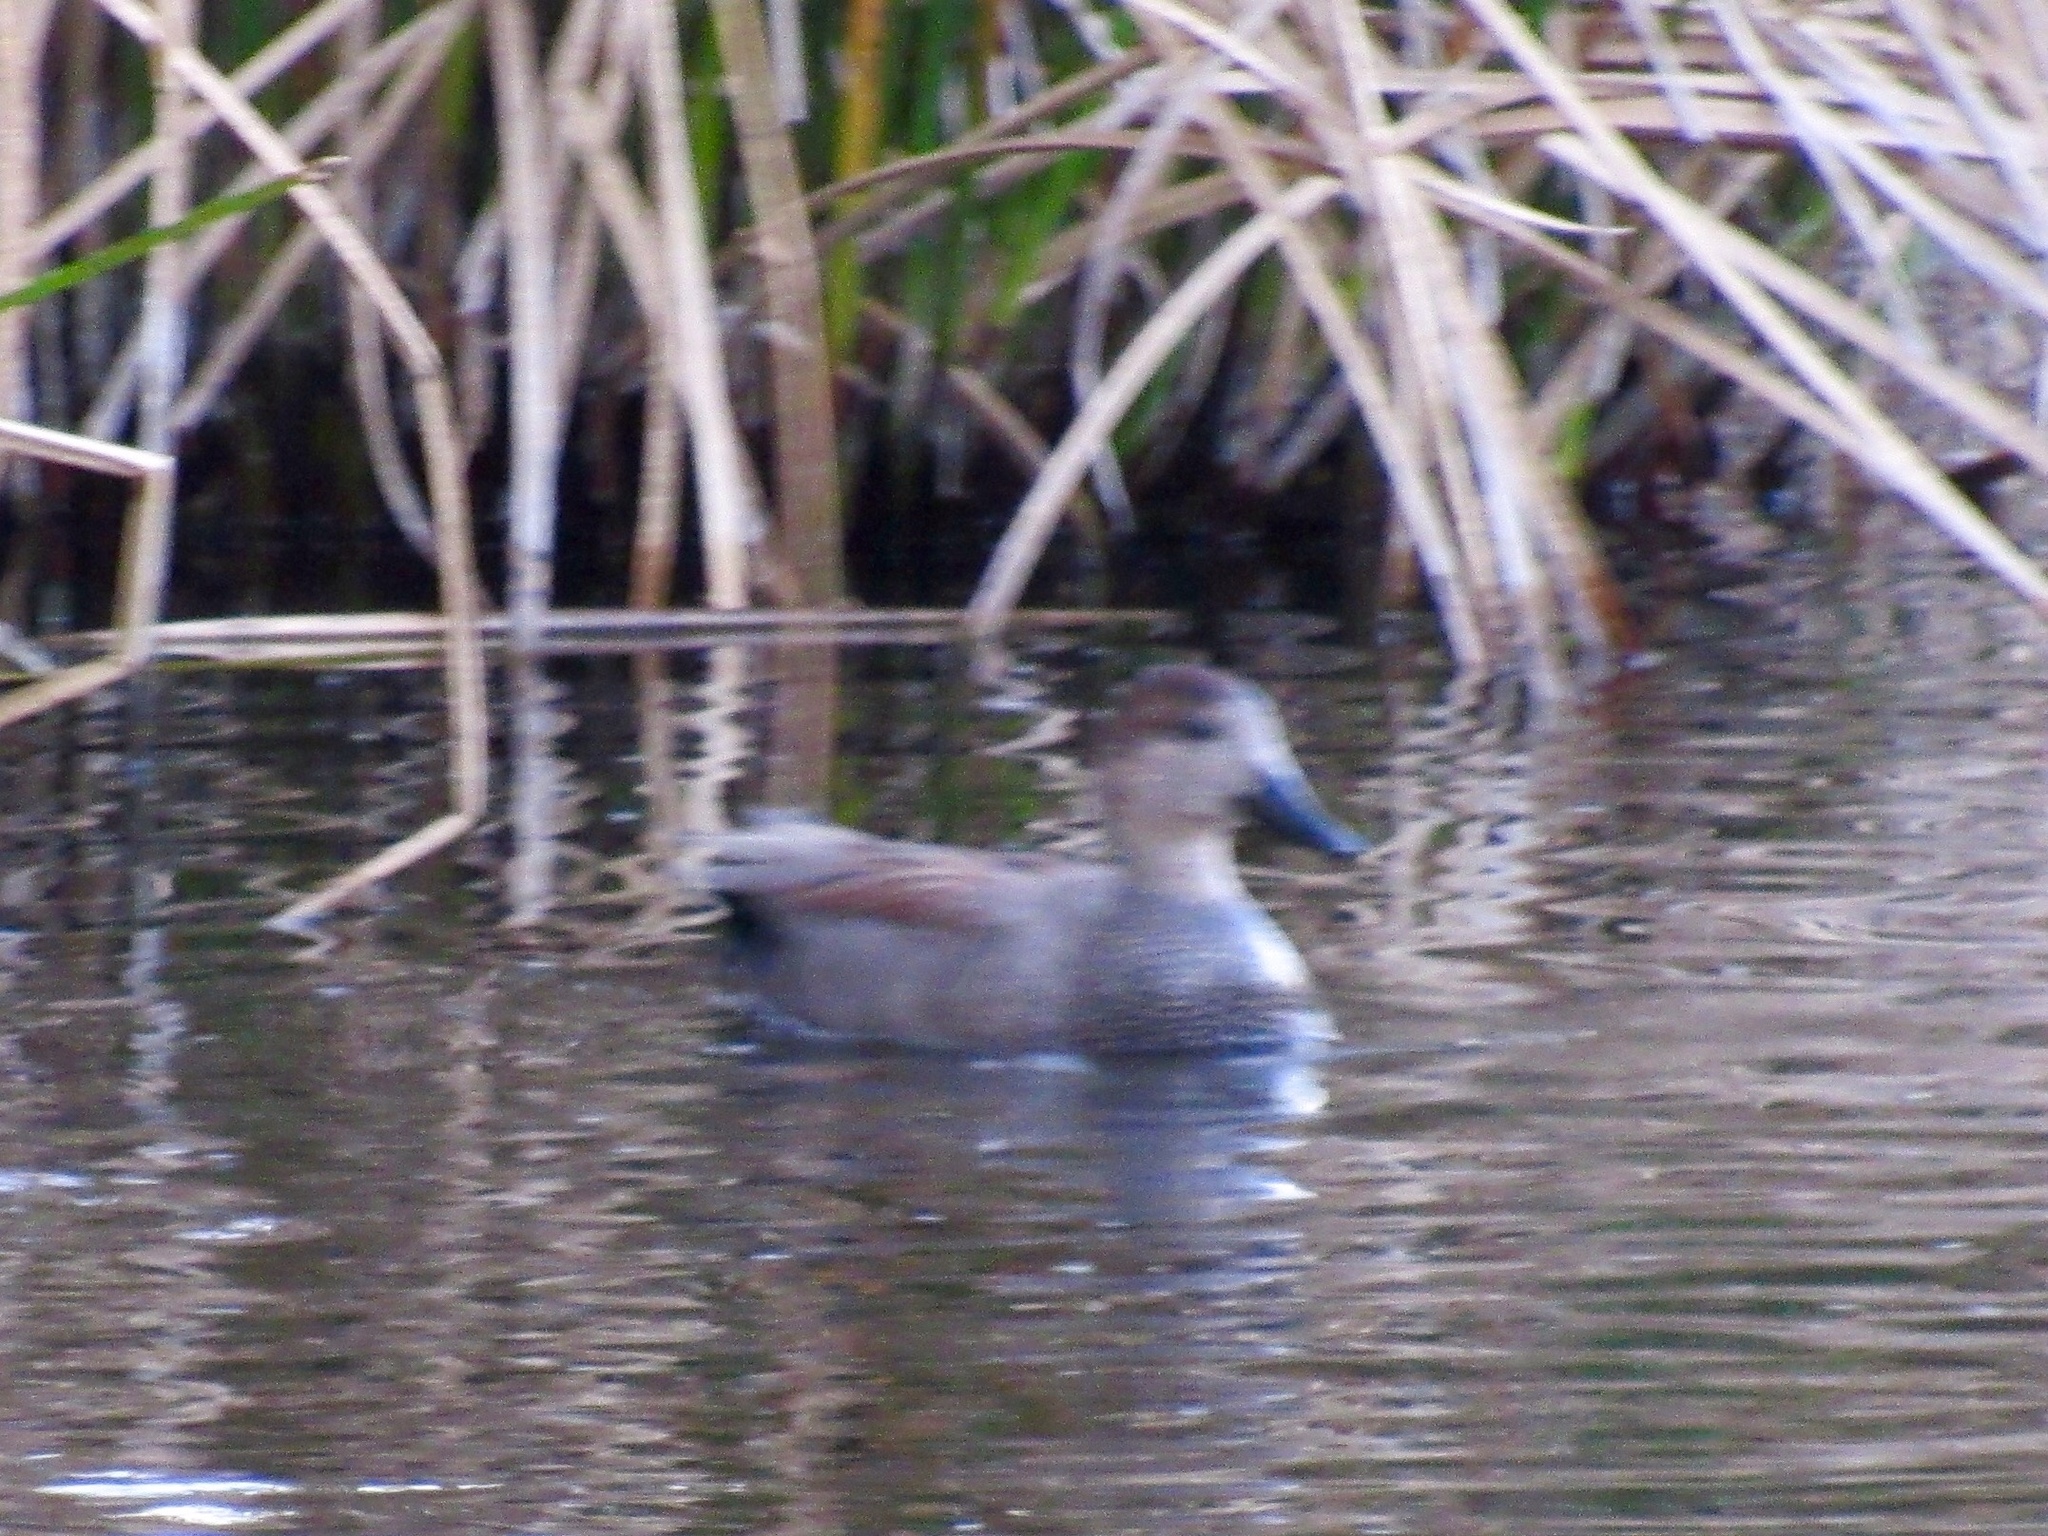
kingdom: Animalia
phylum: Chordata
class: Aves
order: Anseriformes
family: Anatidae
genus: Mareca
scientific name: Mareca strepera
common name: Gadwall
